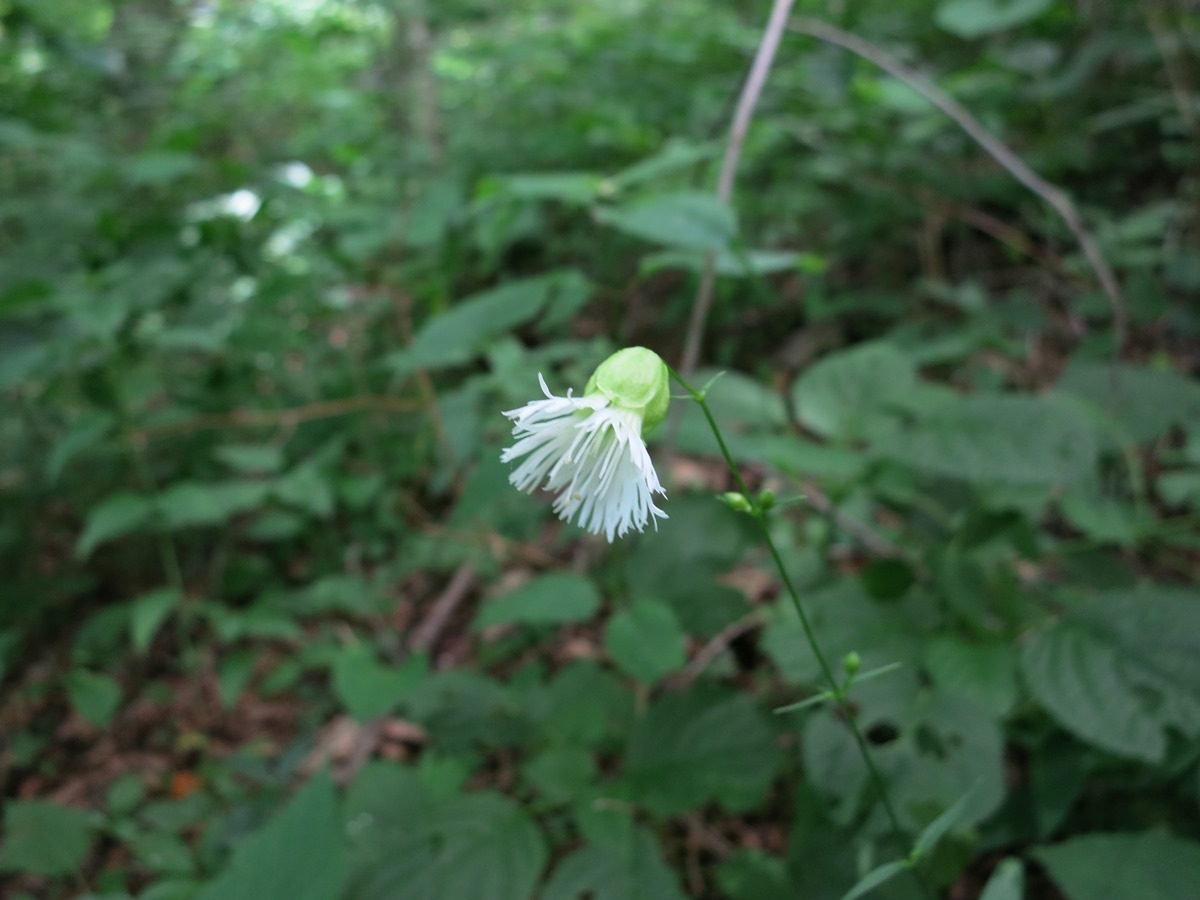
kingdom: Plantae
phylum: Tracheophyta
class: Magnoliopsida
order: Caryophyllales
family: Caryophyllaceae
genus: Silene
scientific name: Silene stellata
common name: Starry campion
